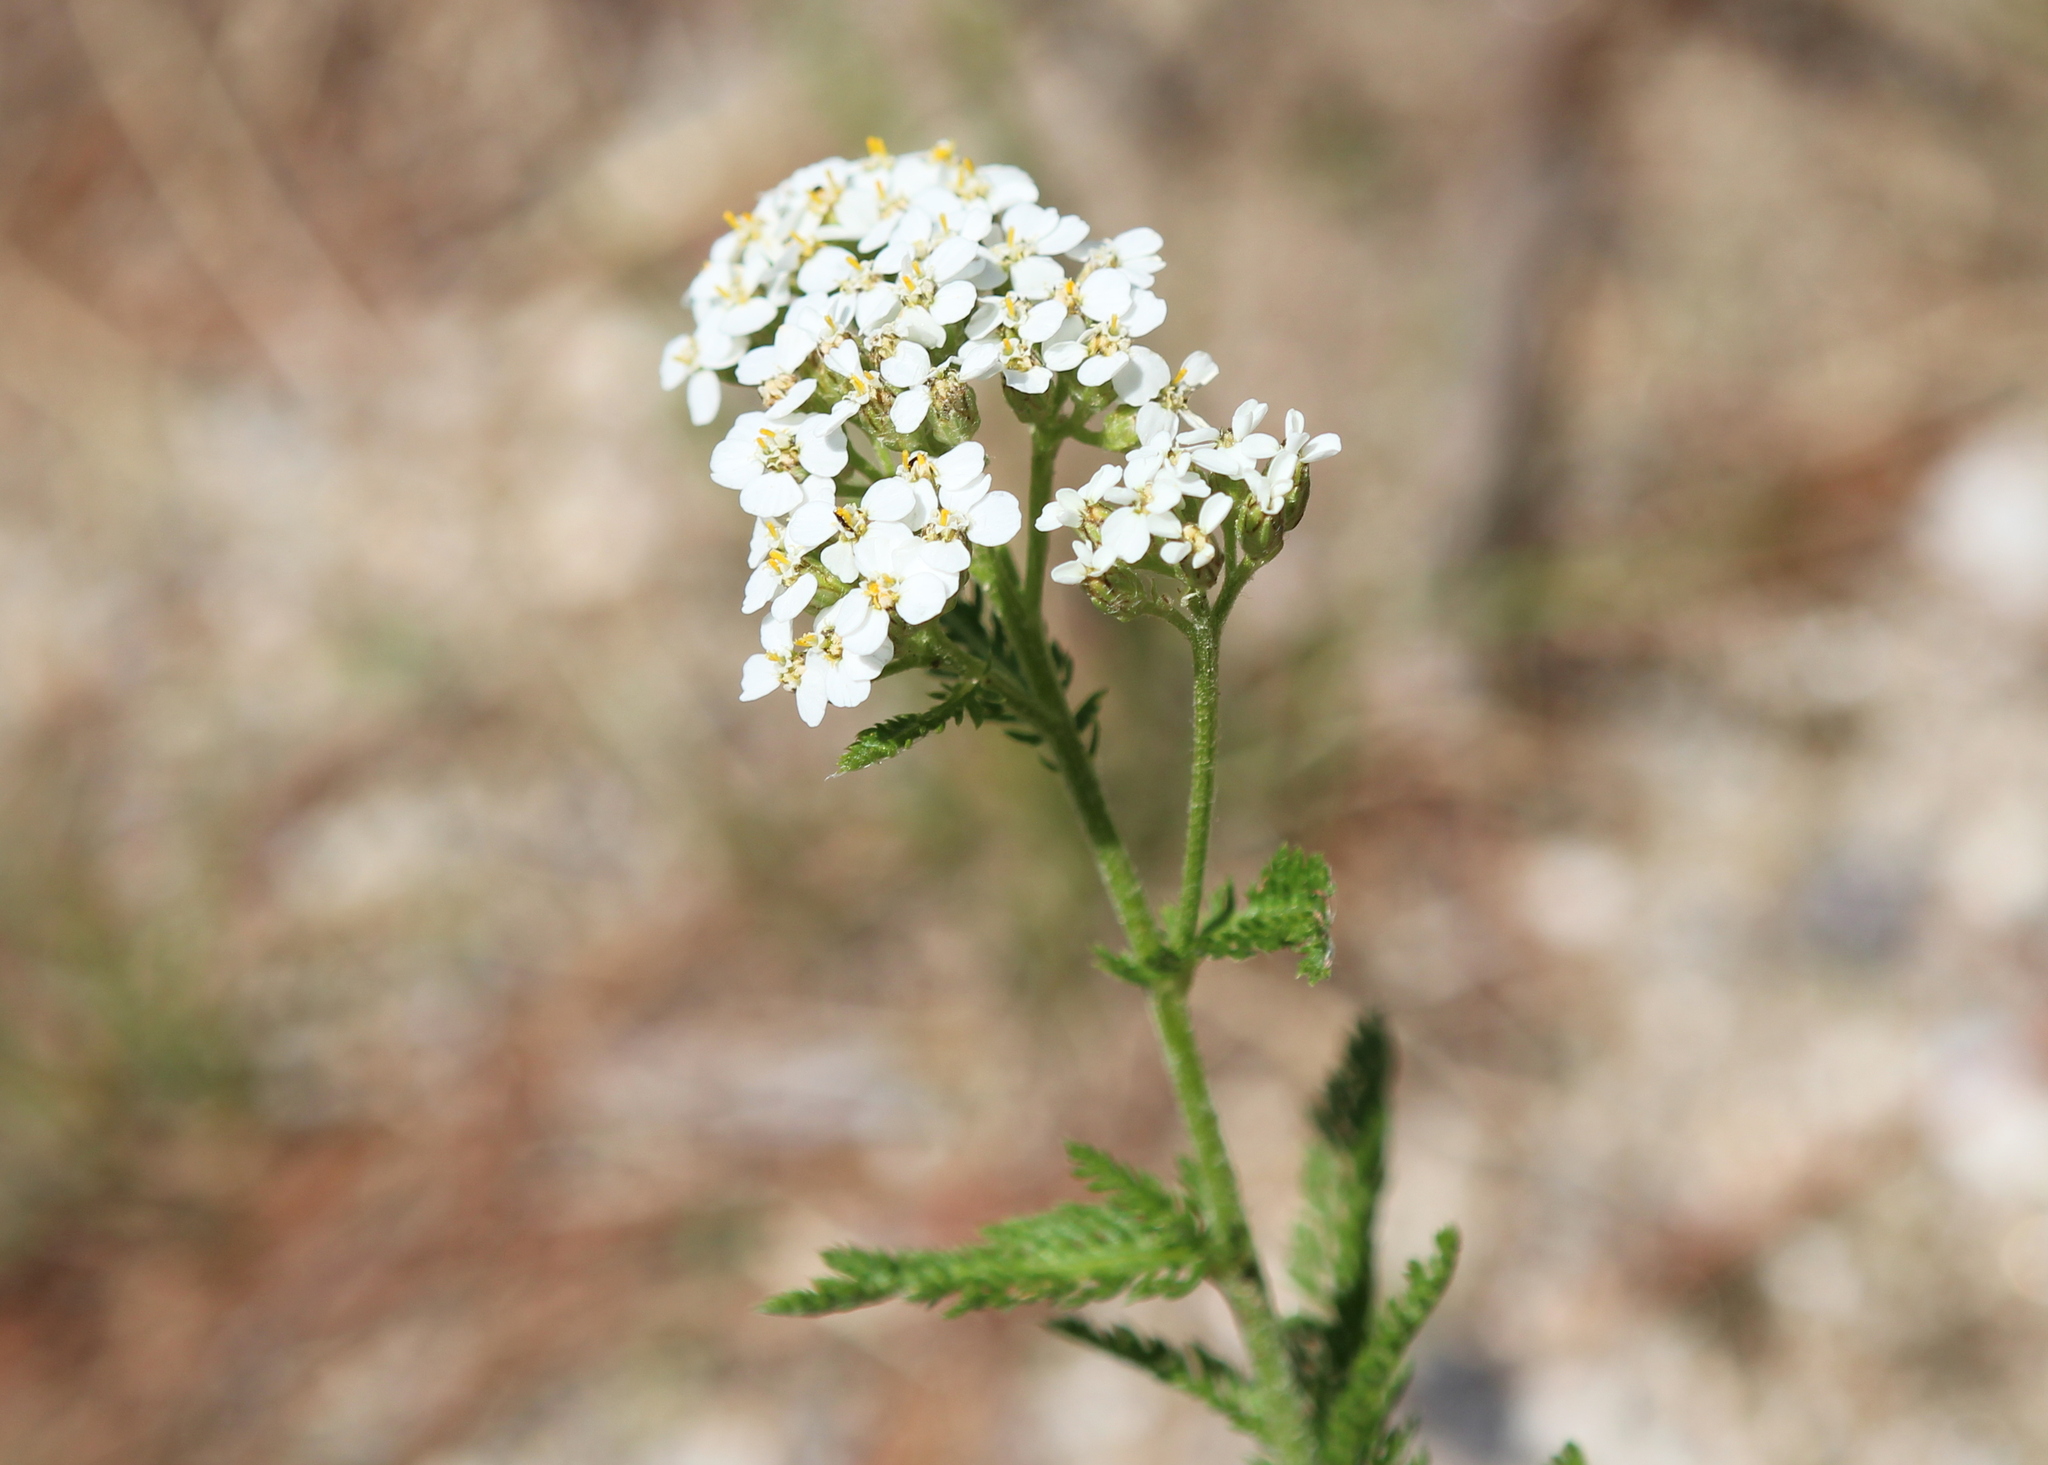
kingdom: Plantae
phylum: Tracheophyta
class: Magnoliopsida
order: Asterales
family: Asteraceae
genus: Achillea
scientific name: Achillea millefolium
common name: Yarrow
